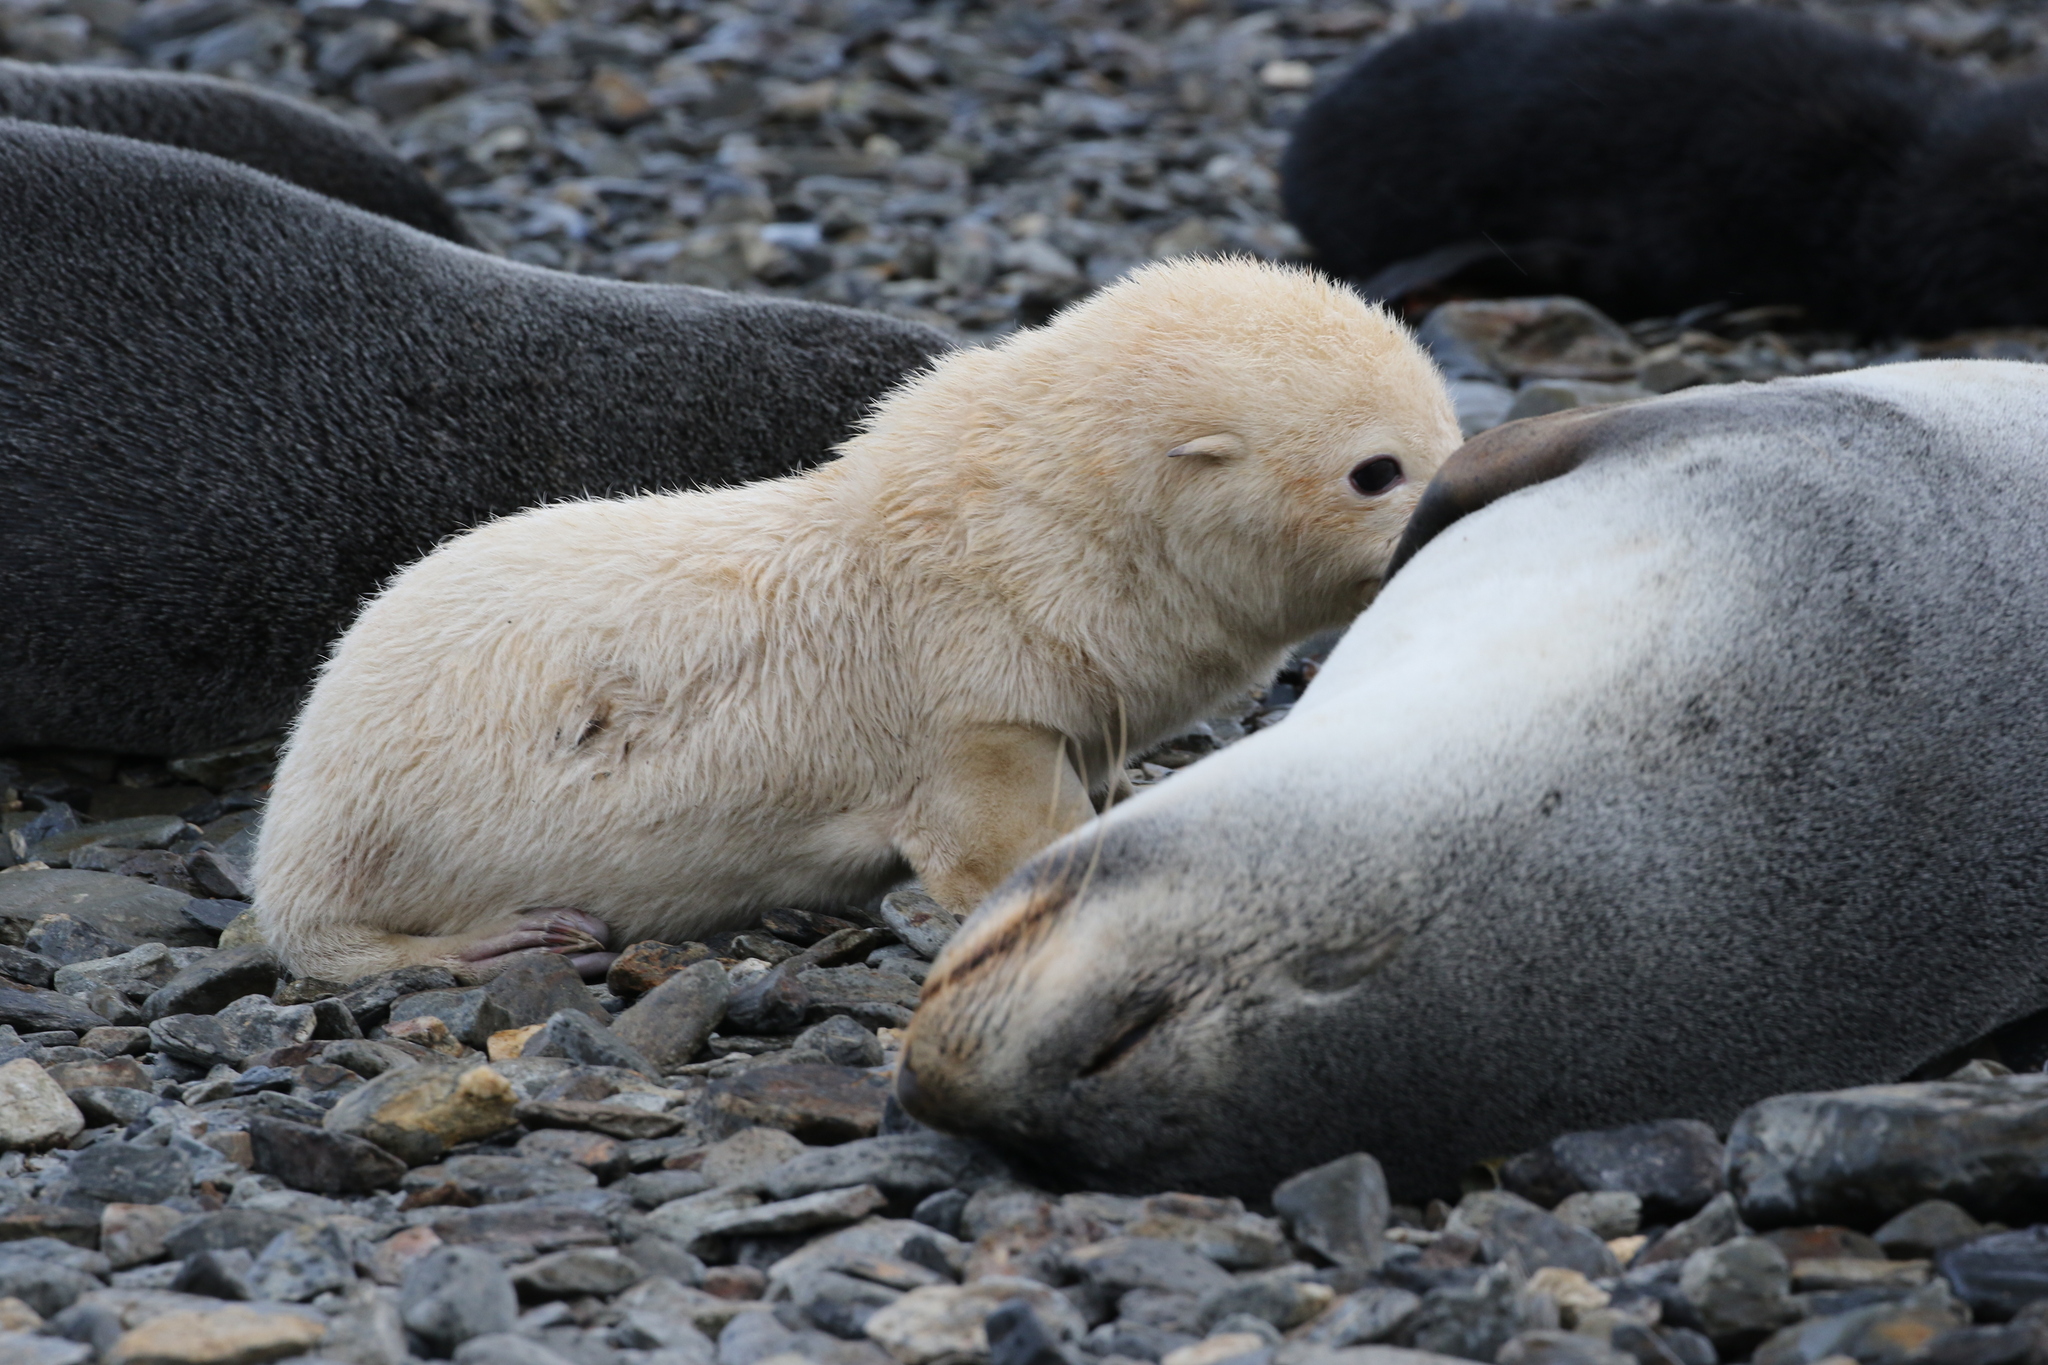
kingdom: Animalia
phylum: Chordata
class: Mammalia
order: Carnivora
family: Otariidae
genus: Arctocephalus
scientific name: Arctocephalus gazella
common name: Antarctic fur seal
